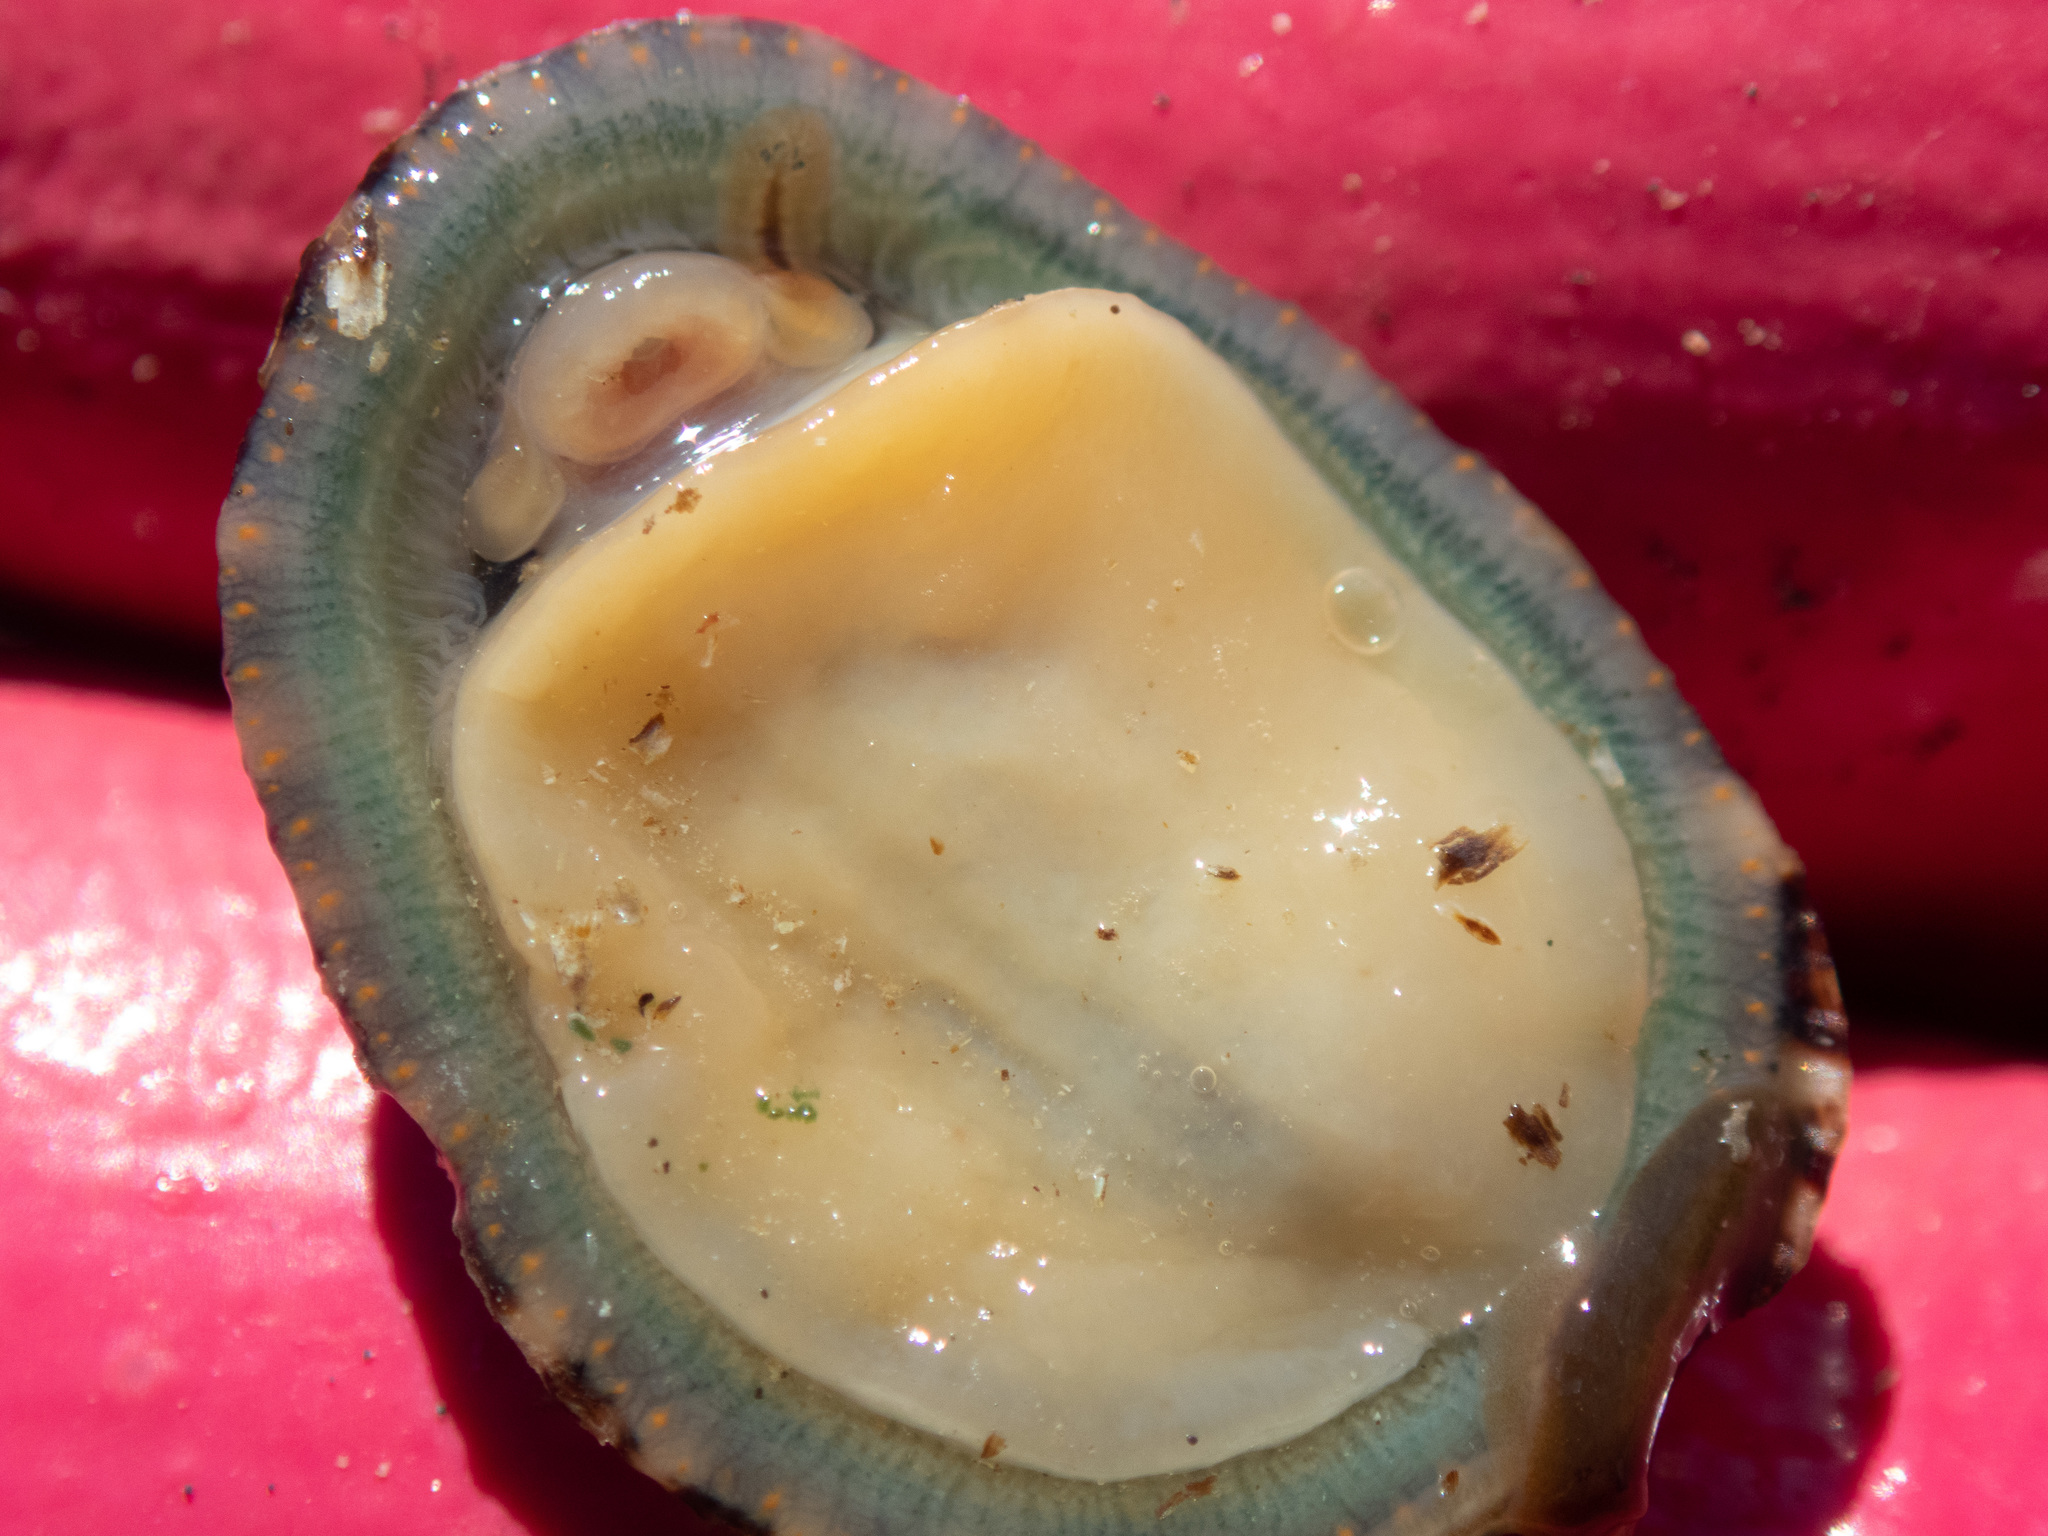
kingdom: Animalia
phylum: Mollusca
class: Gastropoda
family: Lottiidae
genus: Scurria
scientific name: Scurria stipulata
